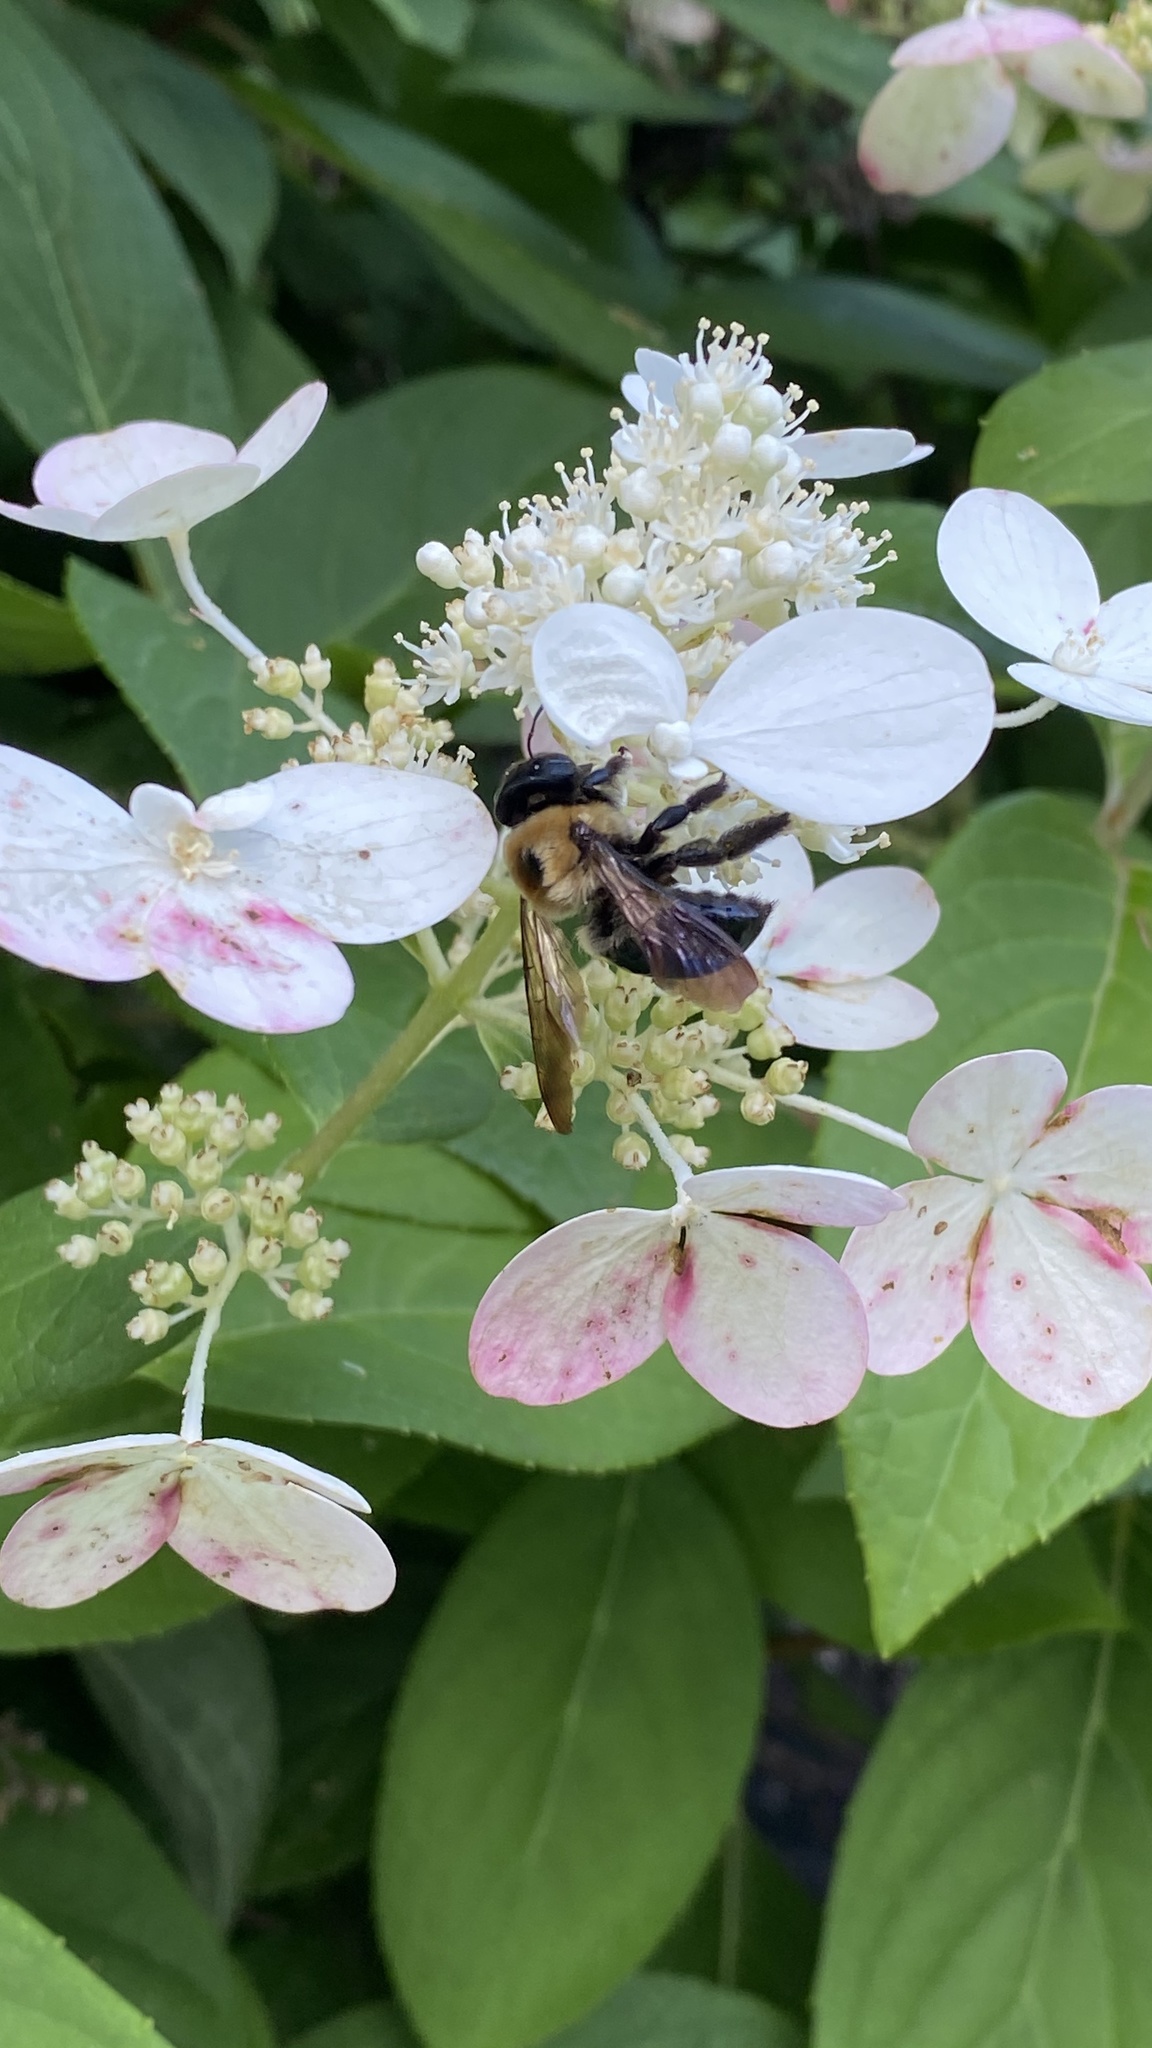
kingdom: Animalia
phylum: Arthropoda
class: Insecta
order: Hymenoptera
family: Apidae
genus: Xylocopa
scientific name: Xylocopa virginica
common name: Carpenter bee
